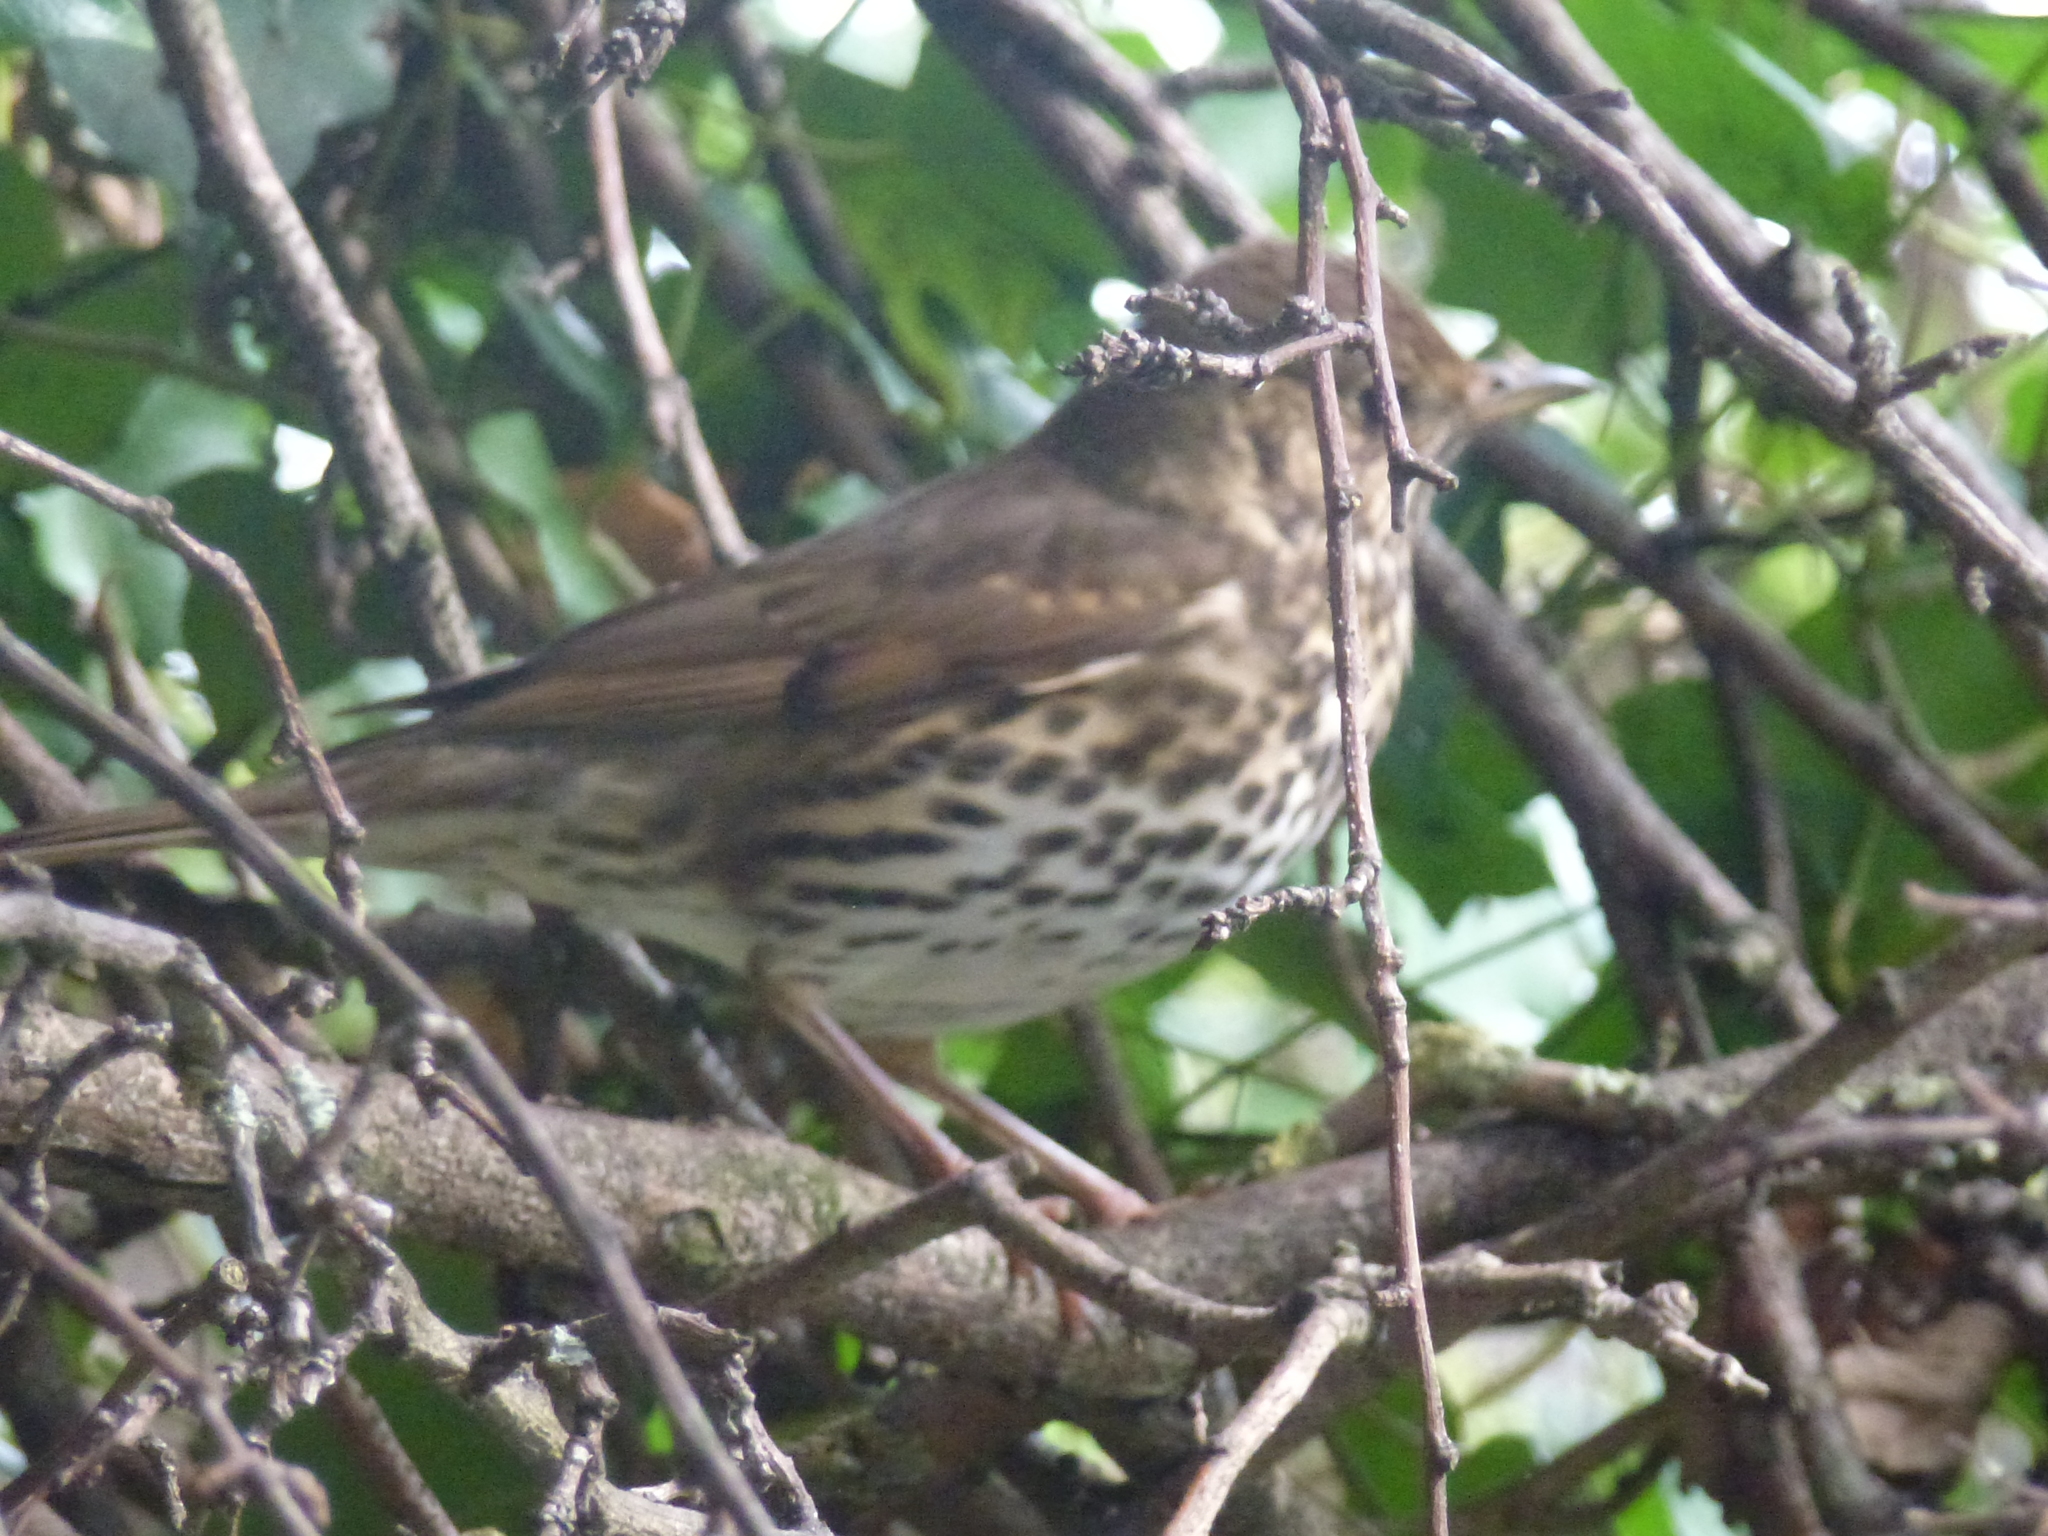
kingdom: Animalia
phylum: Chordata
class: Aves
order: Passeriformes
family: Turdidae
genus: Turdus
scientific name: Turdus philomelos
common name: Song thrush
